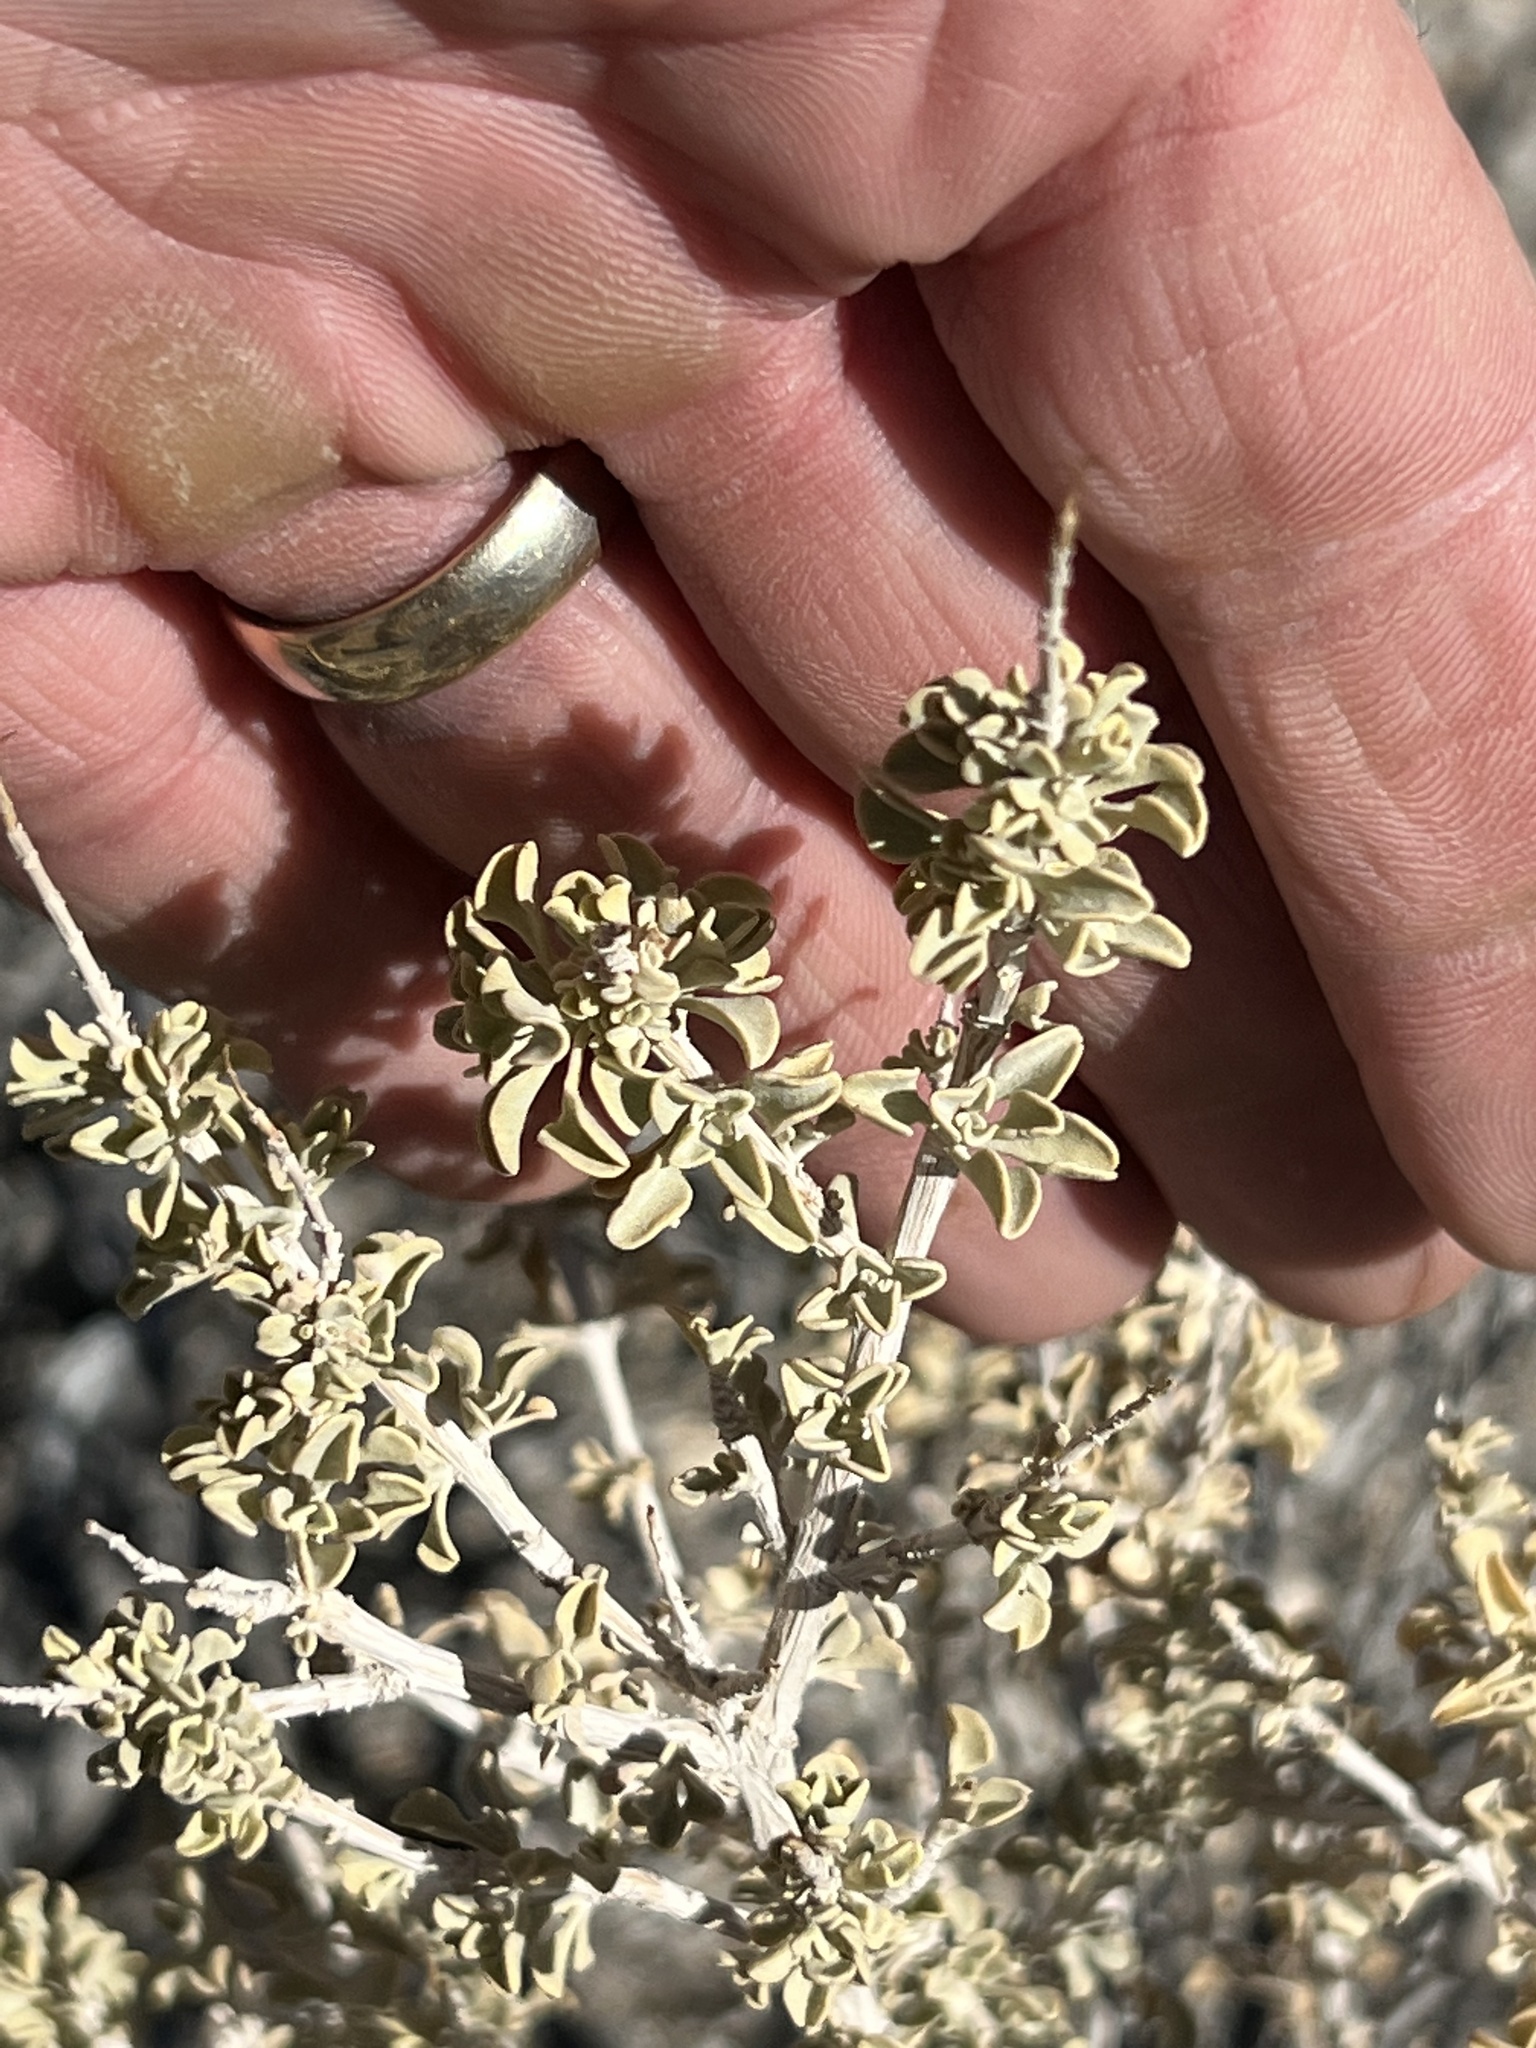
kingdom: Plantae
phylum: Tracheophyta
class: Magnoliopsida
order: Caryophyllales
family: Amaranthaceae
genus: Atriplex
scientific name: Atriplex canescens
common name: Four-wing saltbush
